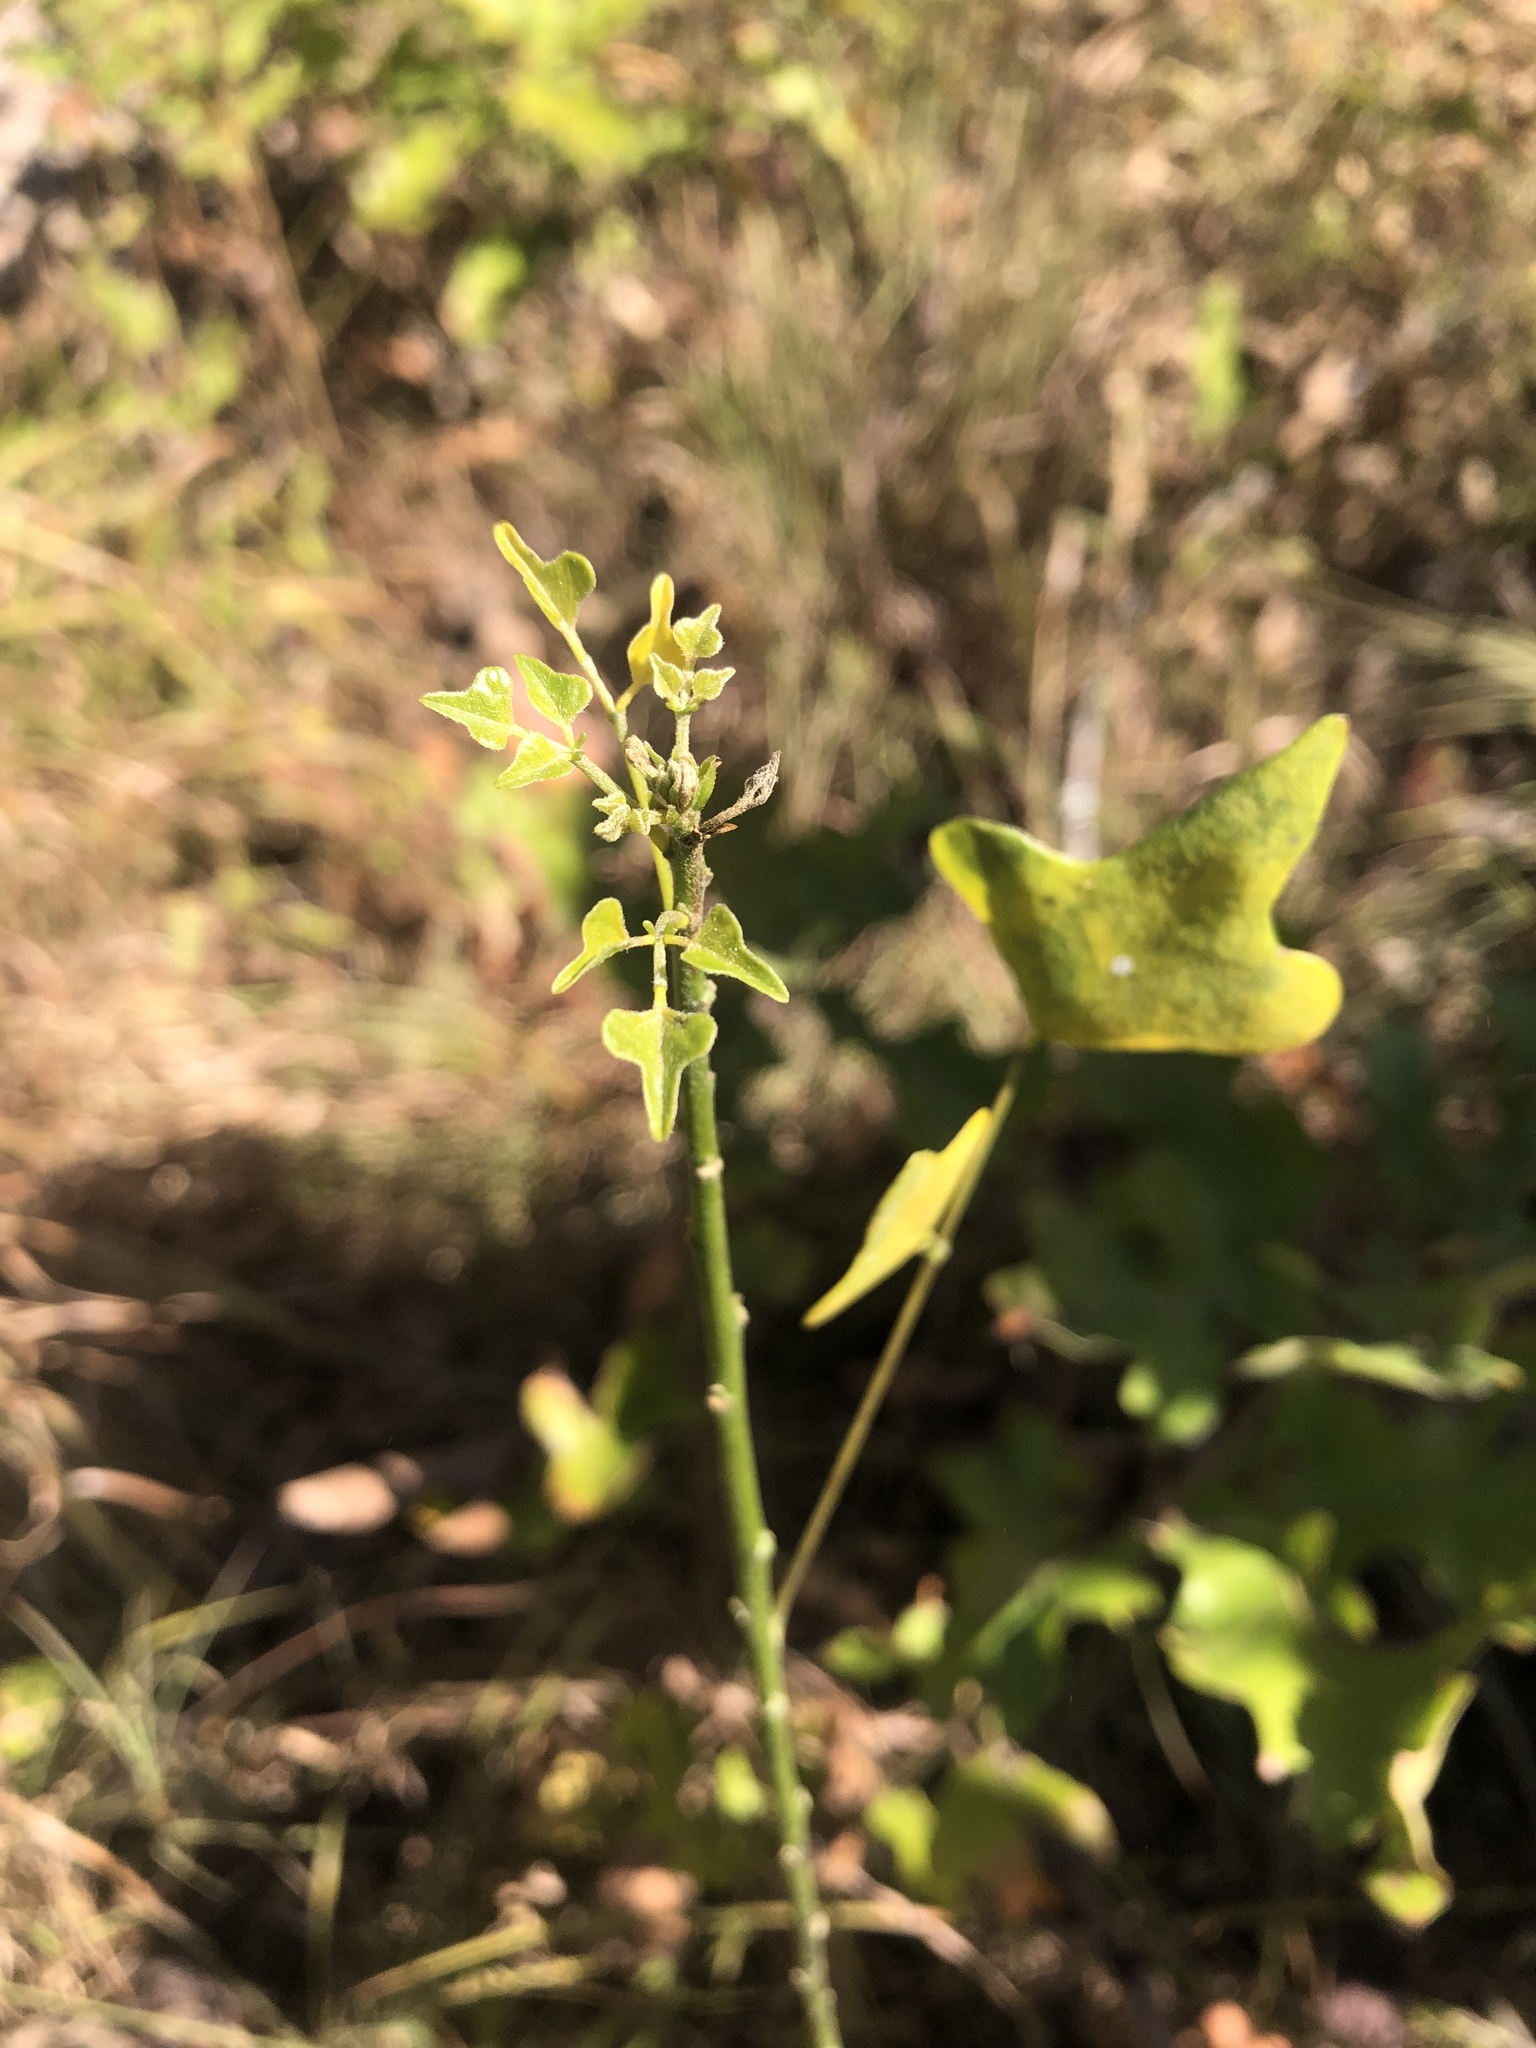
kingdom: Plantae
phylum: Tracheophyta
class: Magnoliopsida
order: Fabales
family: Fabaceae
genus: Erythrina
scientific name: Erythrina herbacea
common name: Coral-bean
